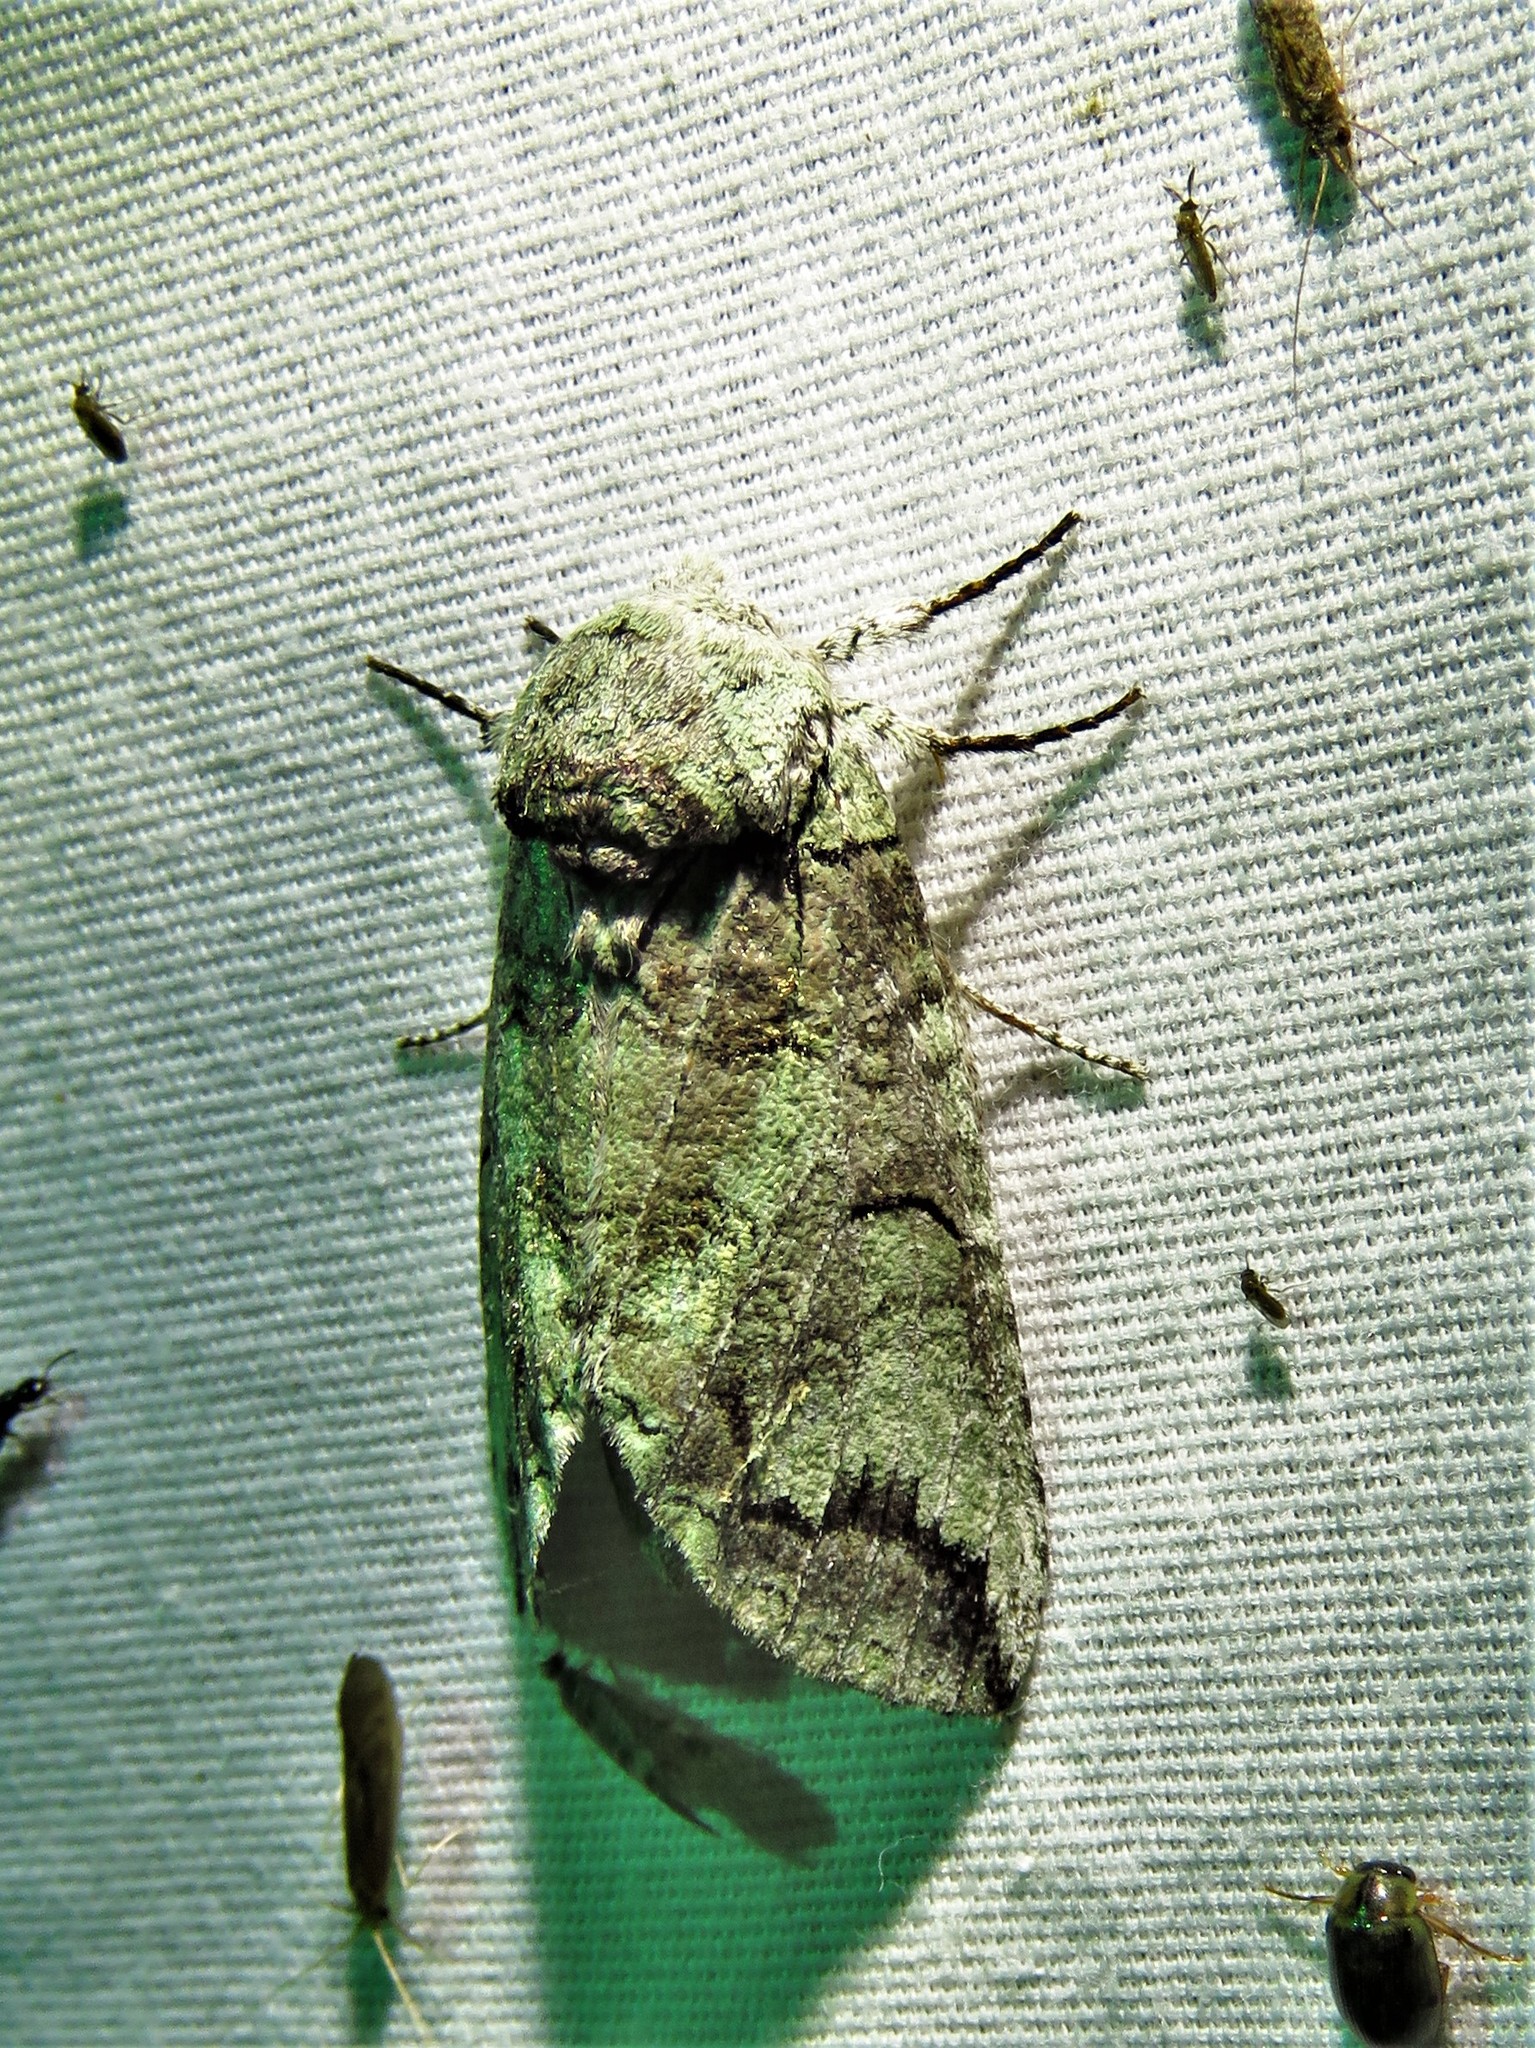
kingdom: Animalia
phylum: Arthropoda
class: Insecta
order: Lepidoptera
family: Notodontidae
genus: Heterocampa
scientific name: Heterocampa astartoides
